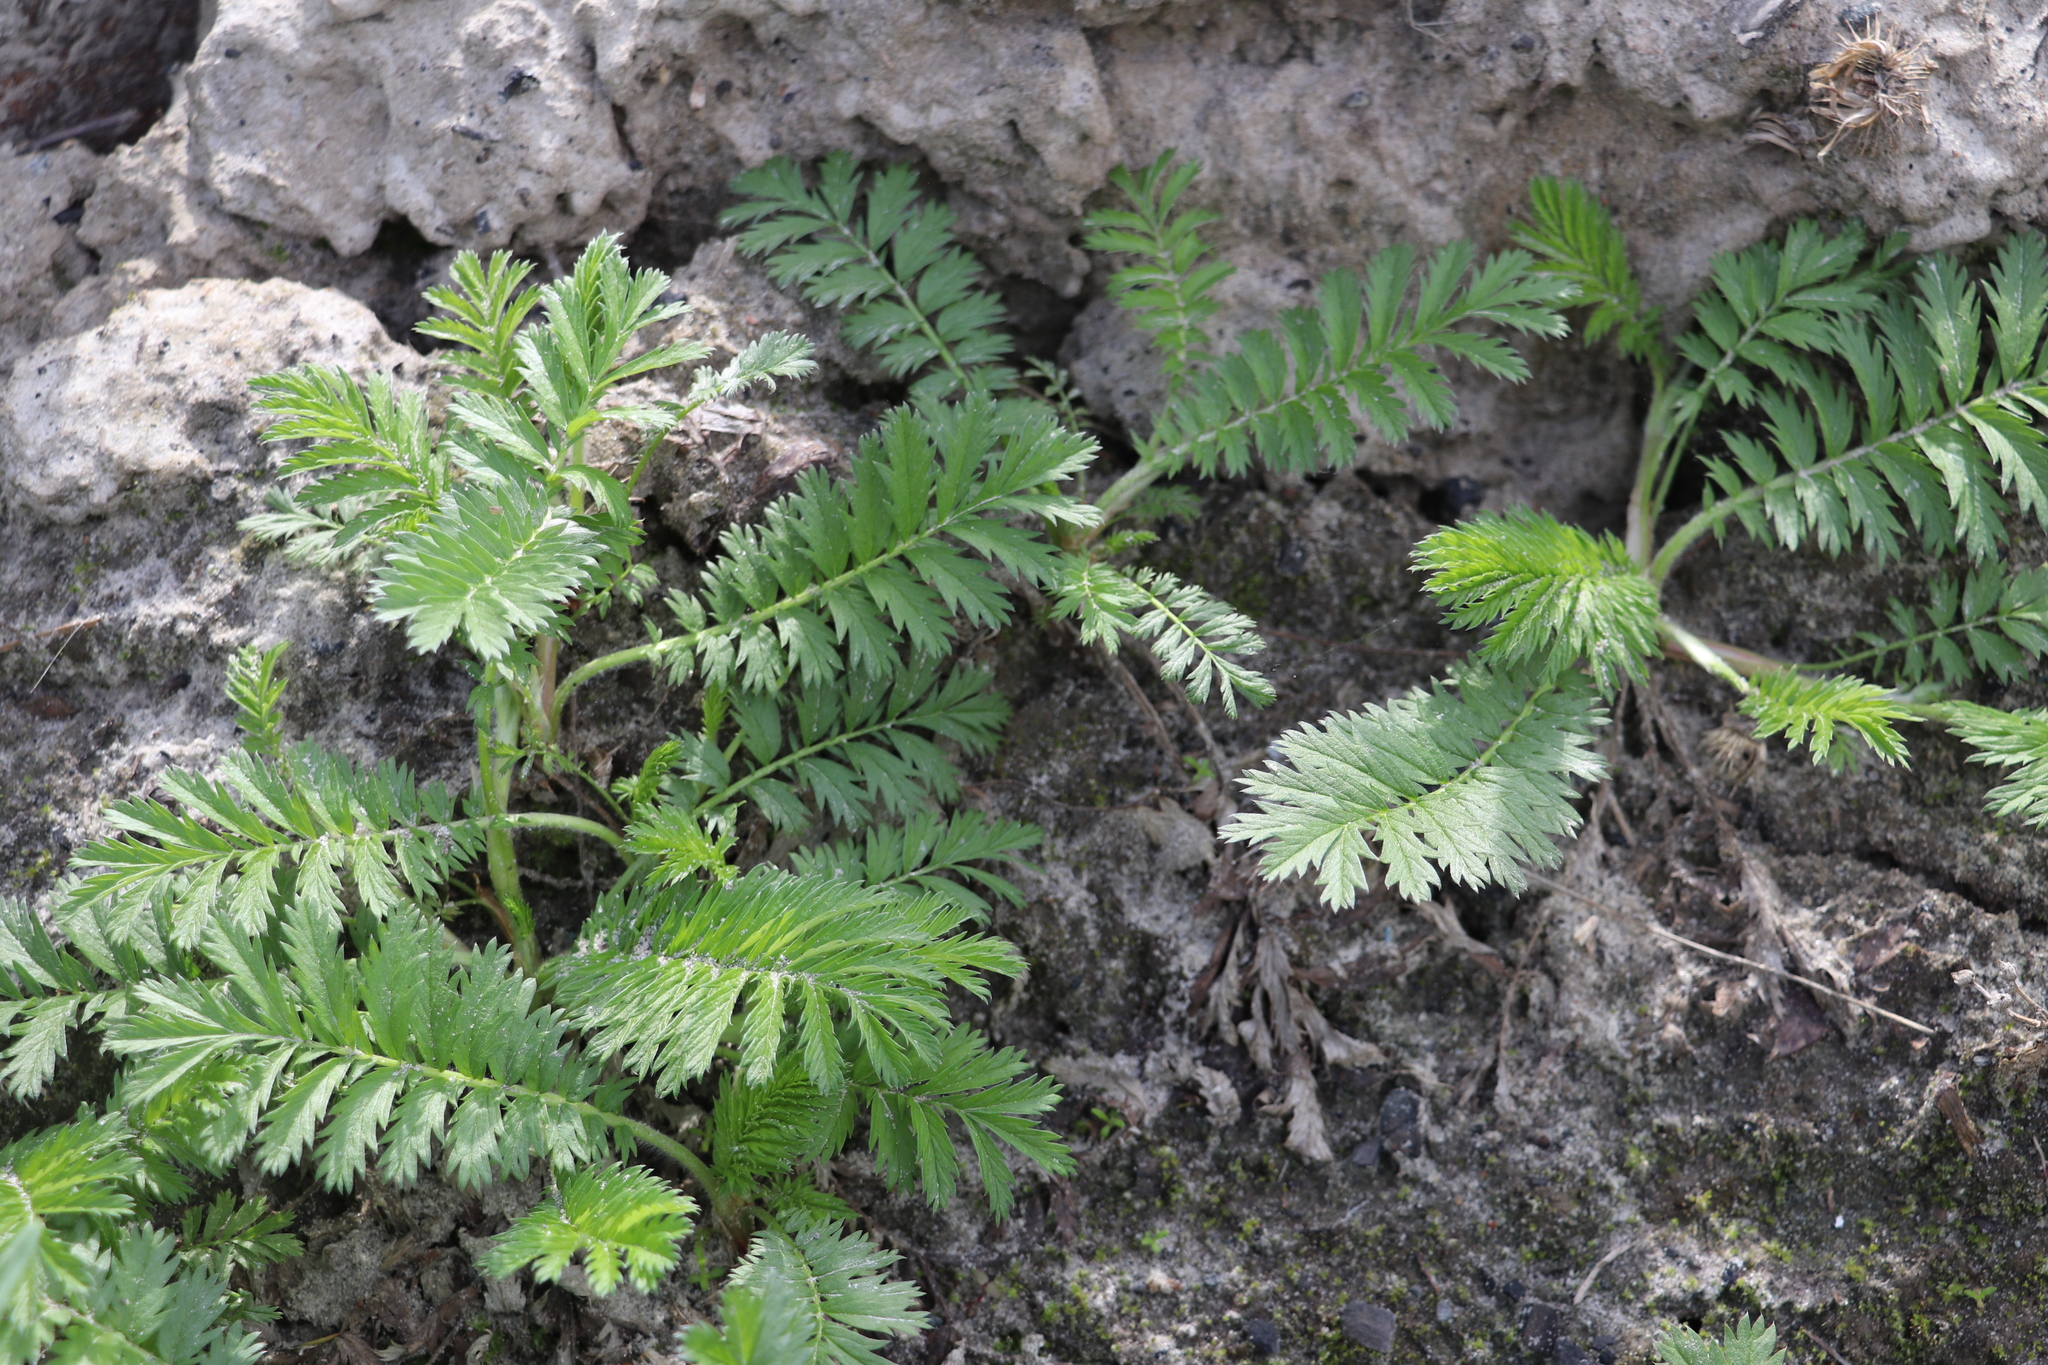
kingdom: Plantae
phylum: Tracheophyta
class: Magnoliopsida
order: Rosales
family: Rosaceae
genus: Argentina
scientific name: Argentina anserina
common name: Common silverweed
